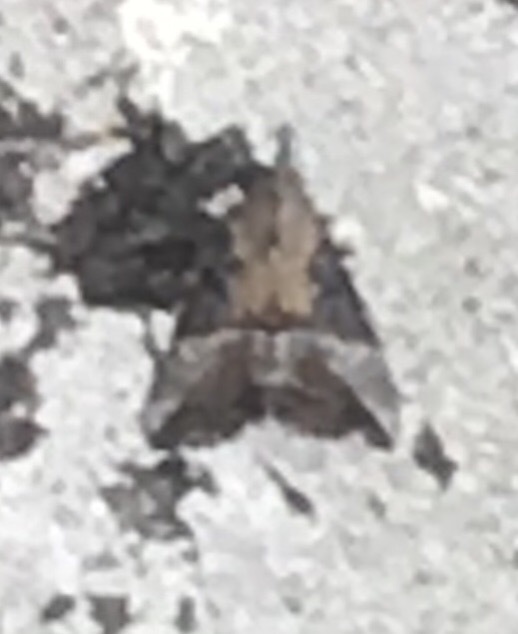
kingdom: Animalia
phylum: Arthropoda
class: Insecta
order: Lepidoptera
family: Erebidae
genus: Hypena
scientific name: Hypena scabra
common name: Green cloverworm
